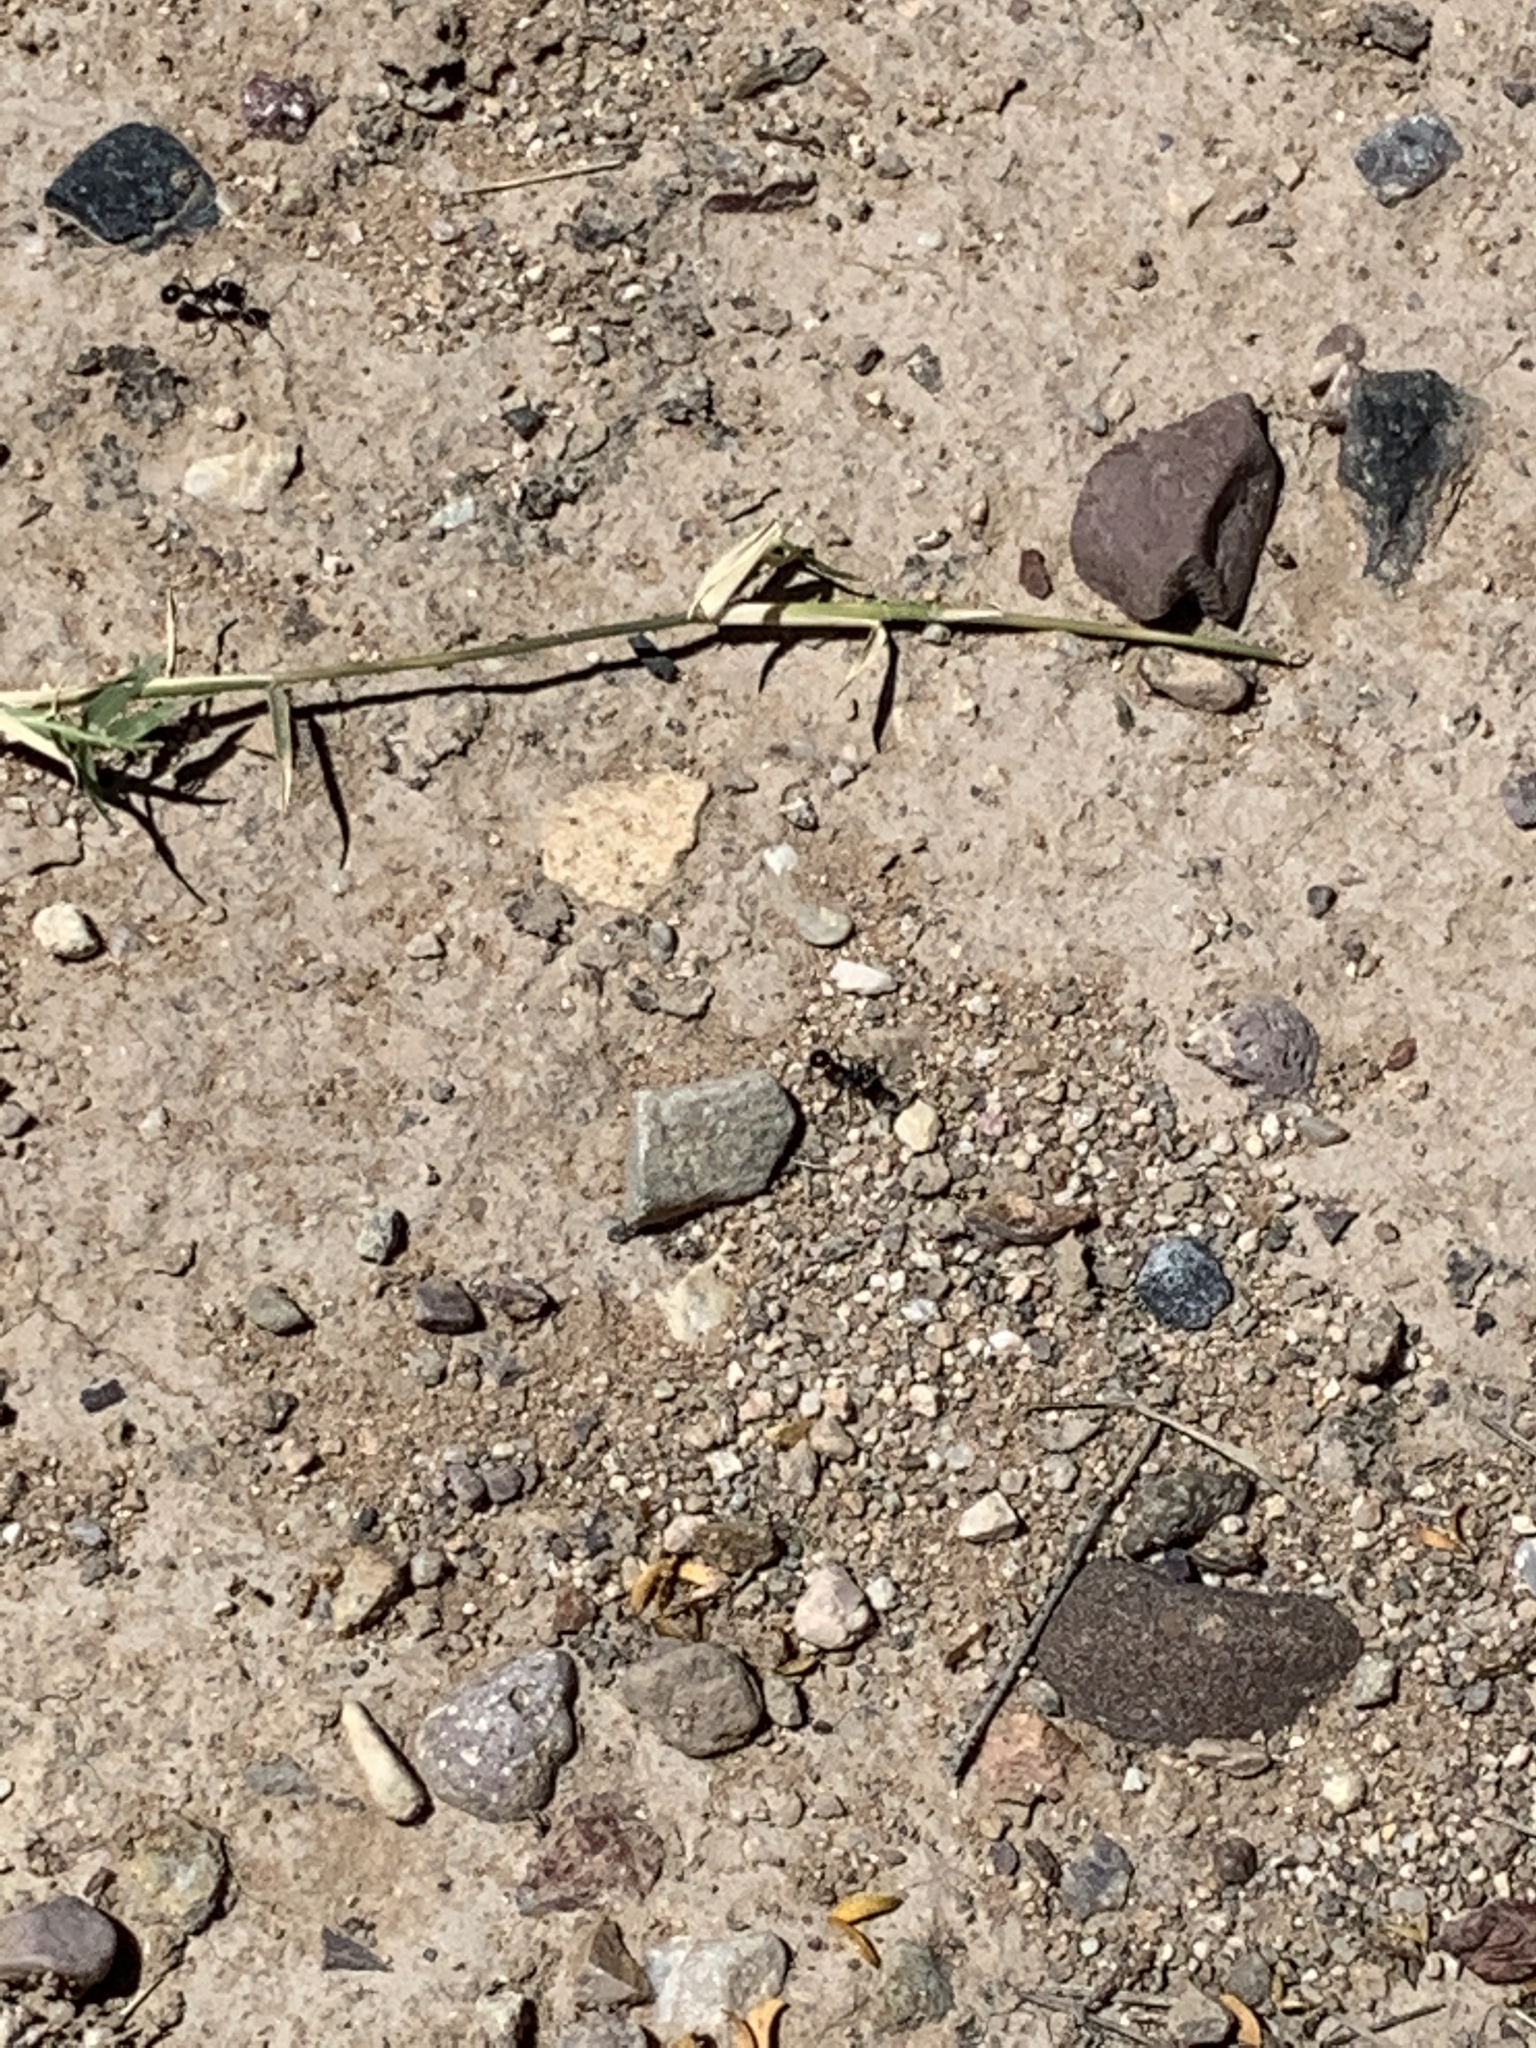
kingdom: Animalia
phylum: Arthropoda
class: Insecta
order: Hymenoptera
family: Formicidae
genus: Pogonomyrmex
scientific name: Pogonomyrmex rugosus
